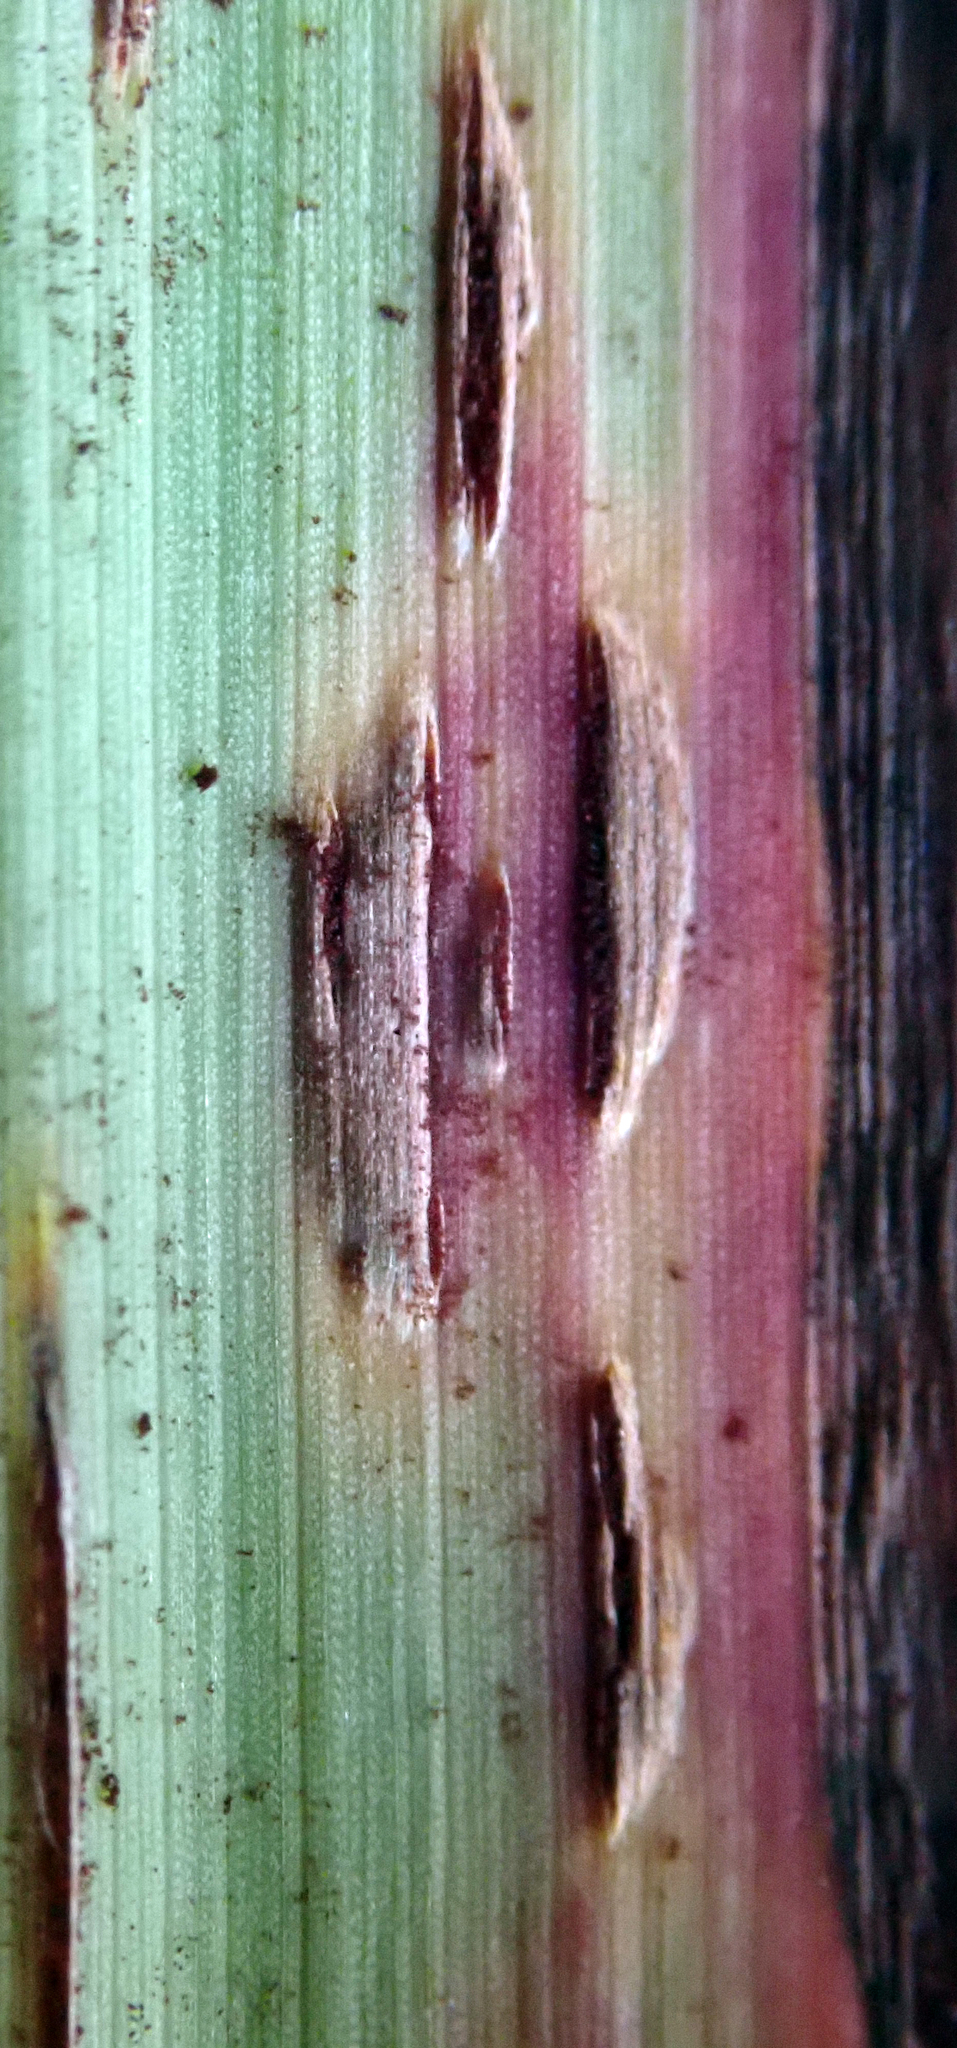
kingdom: Fungi
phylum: Basidiomycota
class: Pucciniomycetes
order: Pucciniales
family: Pucciniaceae
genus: Puccinia
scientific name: Puccinia nakanishikii
